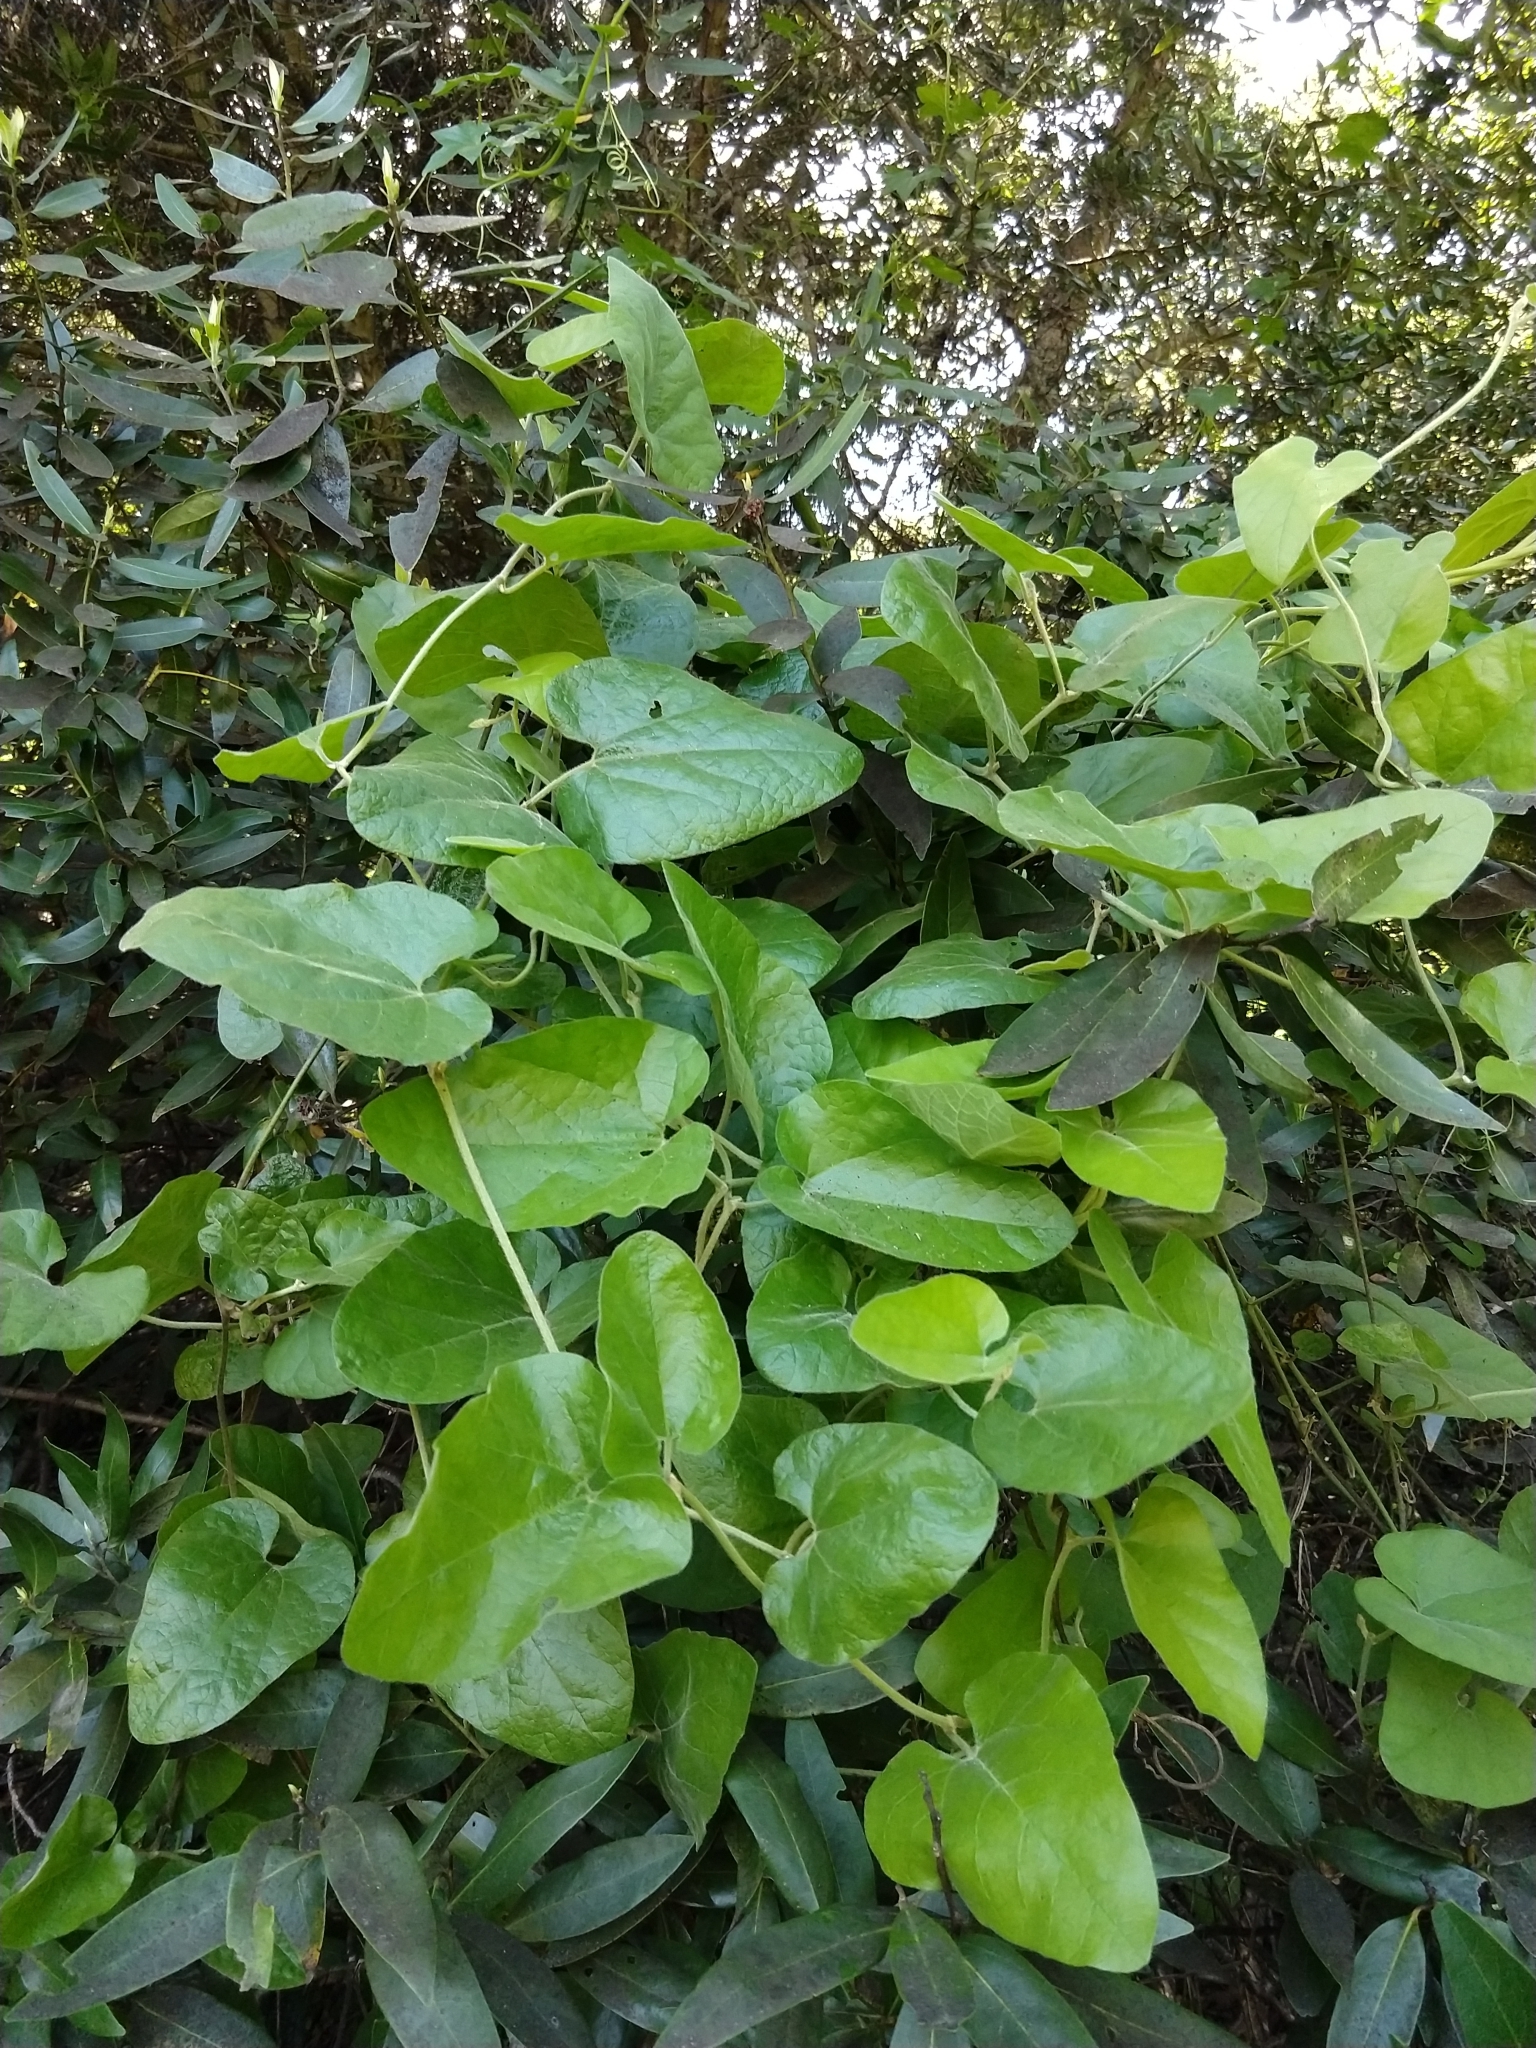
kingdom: Plantae
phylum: Tracheophyta
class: Magnoliopsida
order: Piperales
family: Aristolochiaceae
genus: Isotrema
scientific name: Isotrema californicum
